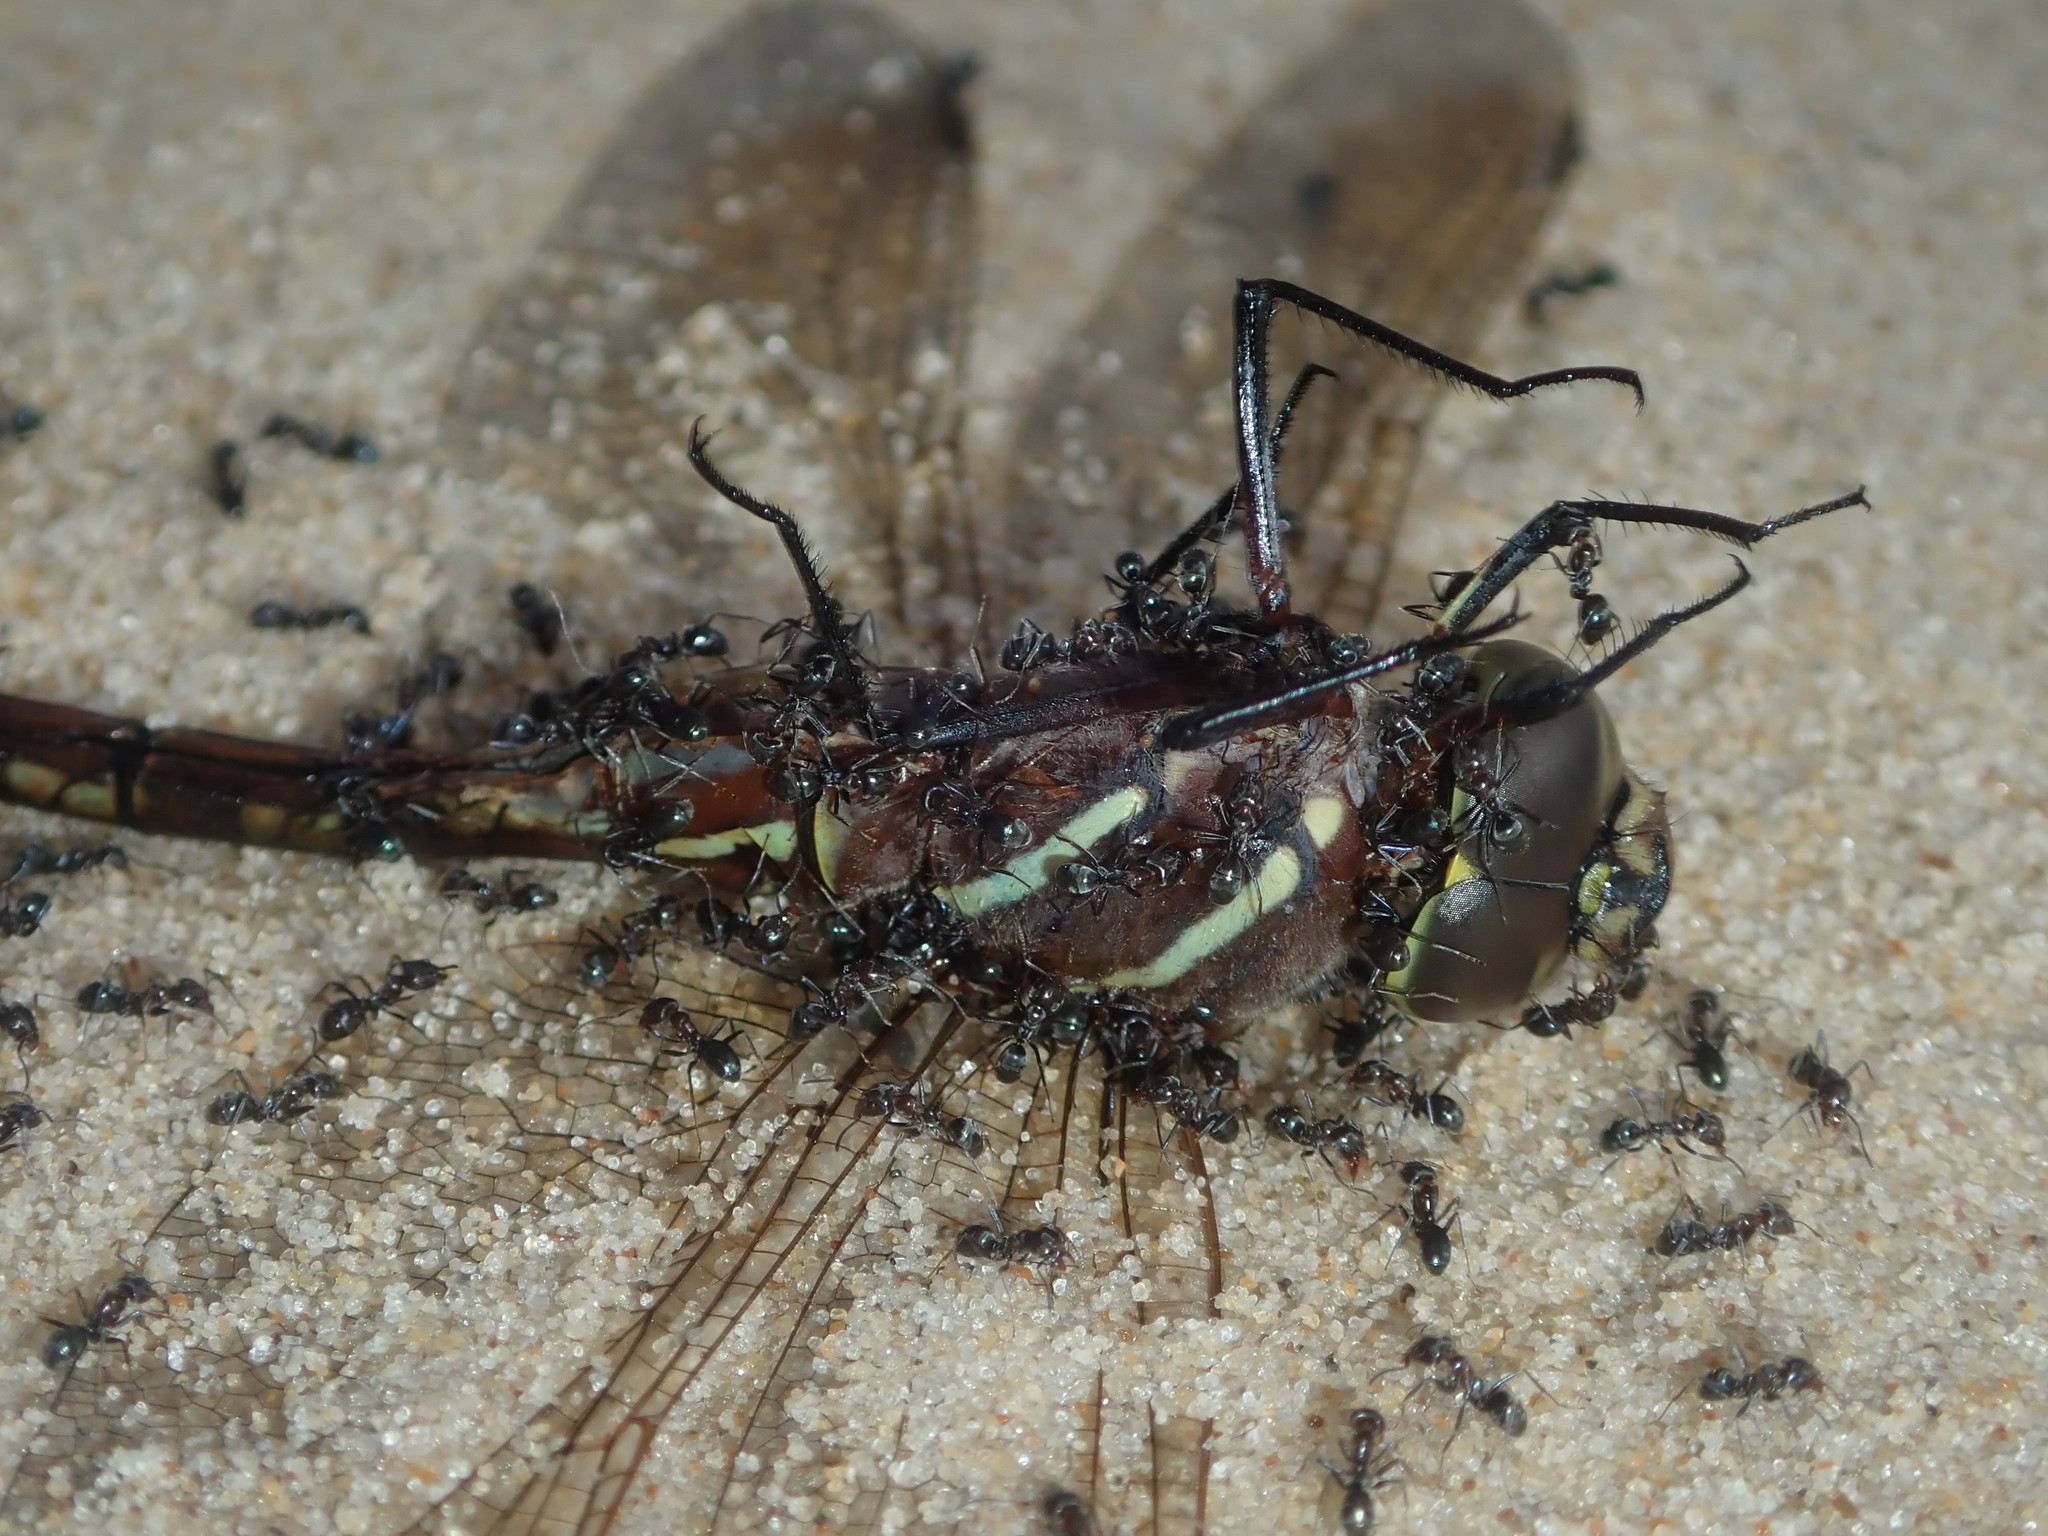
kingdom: Animalia
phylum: Arthropoda
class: Insecta
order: Odonata
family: Aeshnidae
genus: Aeshna
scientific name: Aeshna brevistyla
